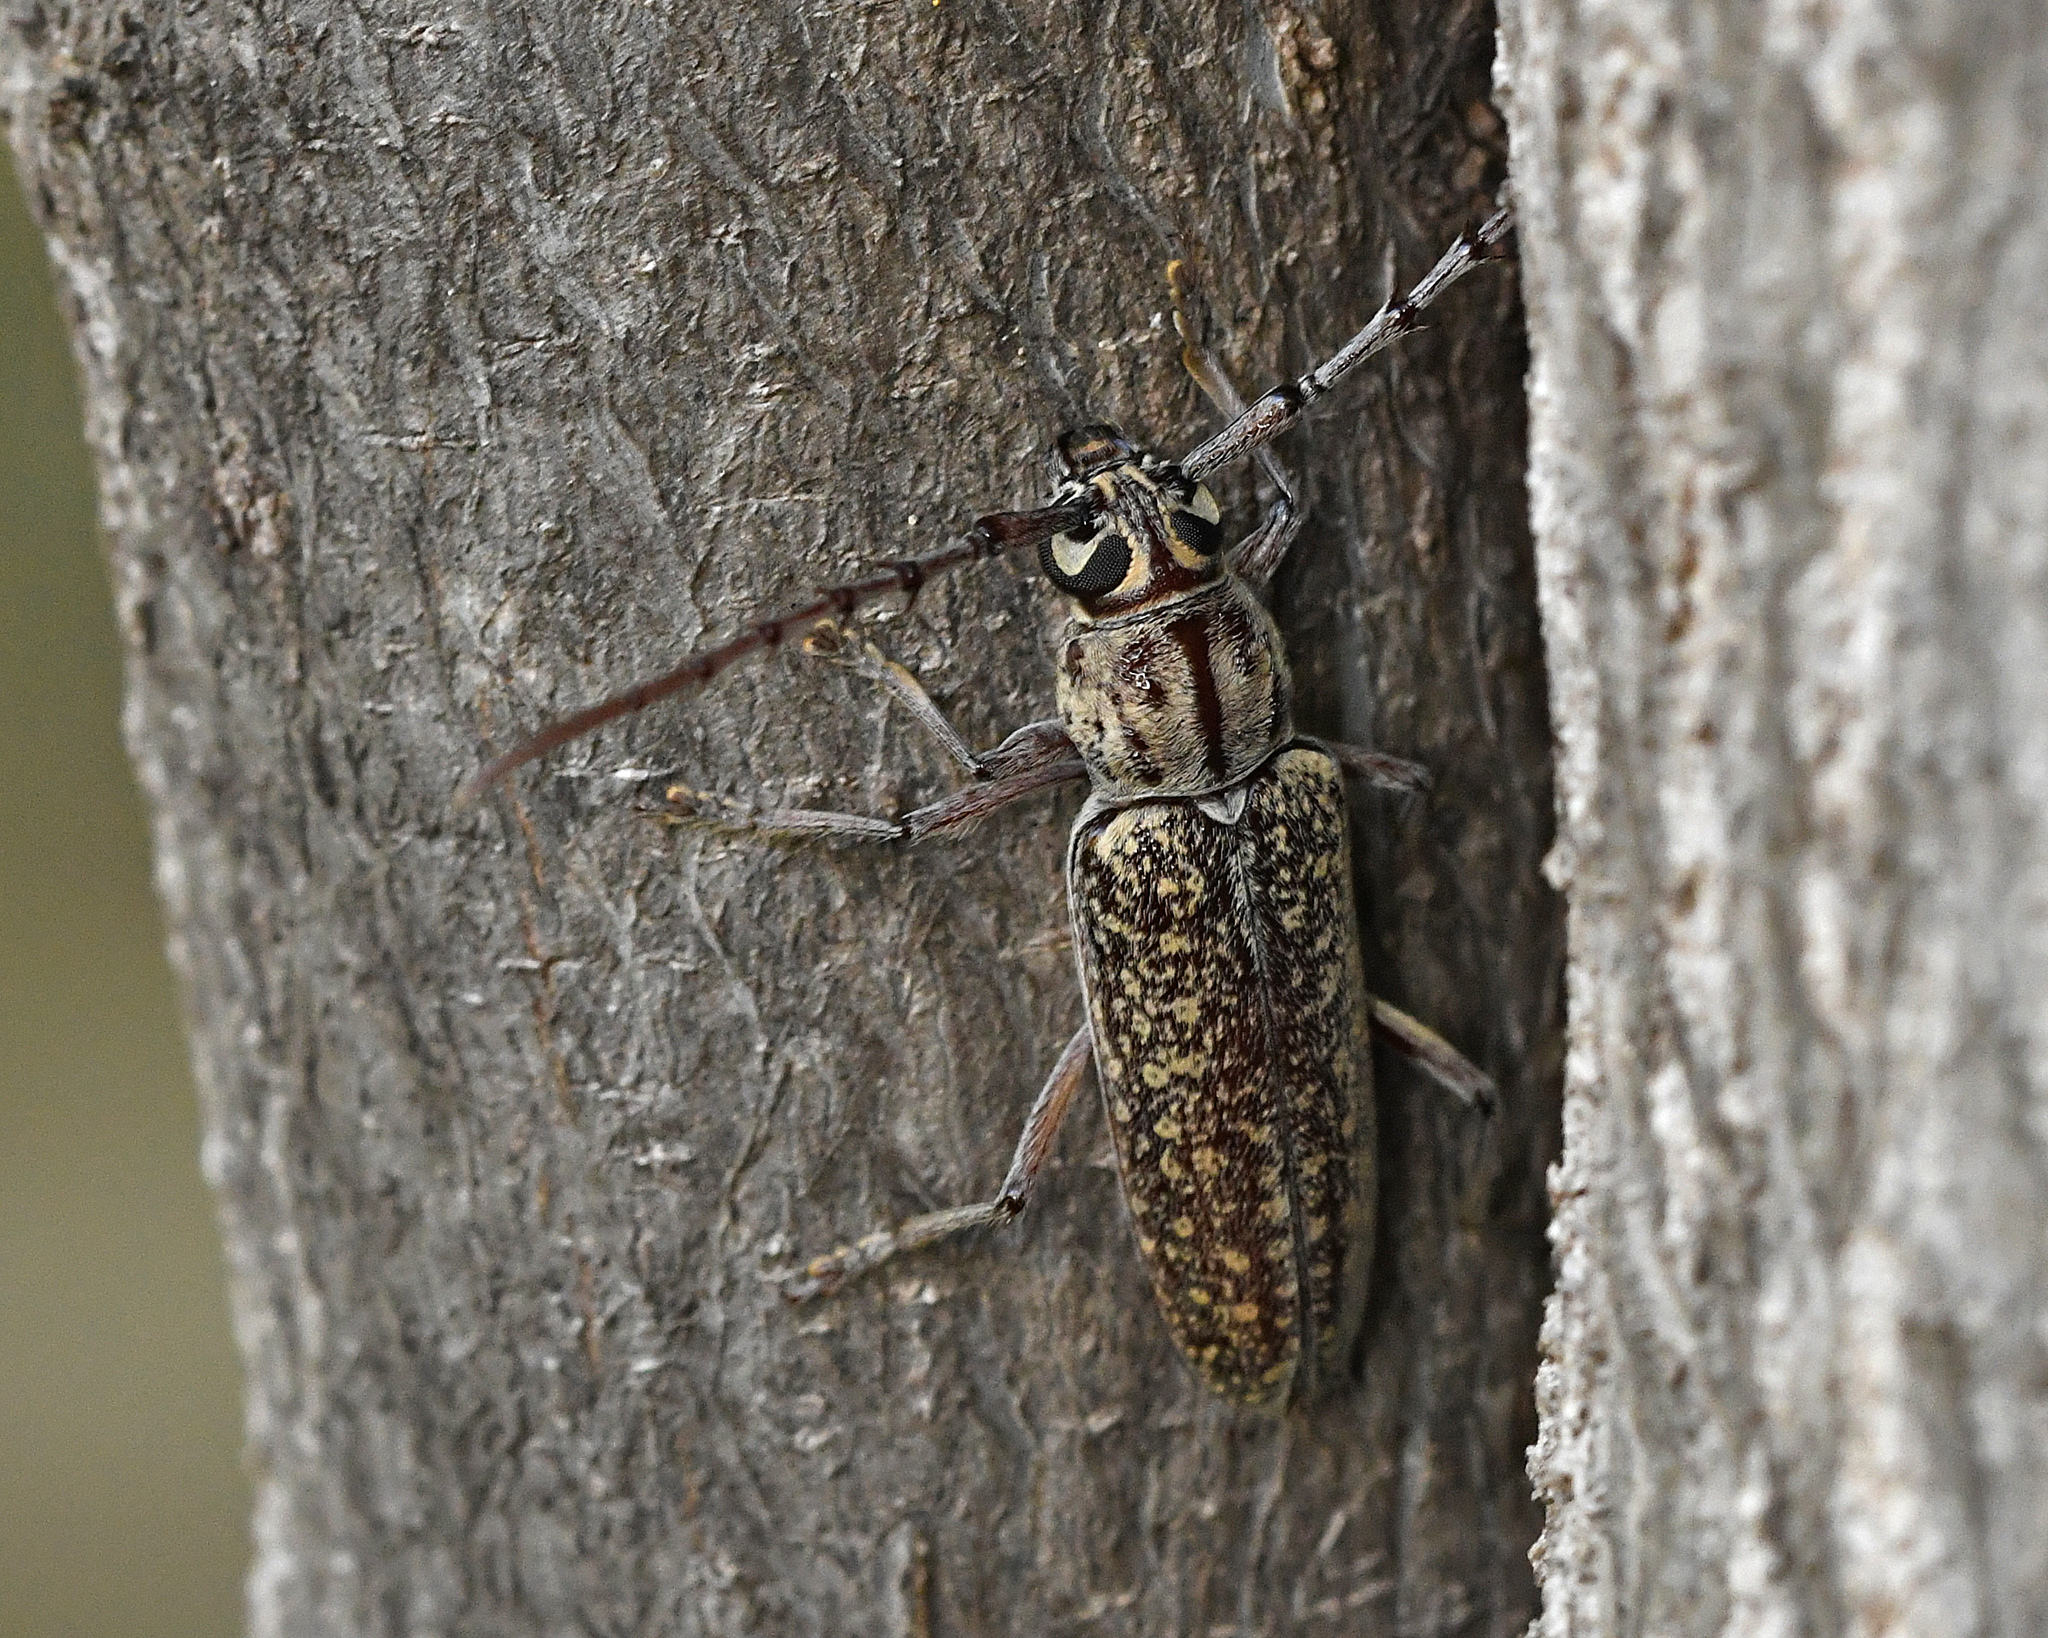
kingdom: Animalia
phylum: Arthropoda
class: Insecta
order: Coleoptera
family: Cerambycidae
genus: Elaphidion
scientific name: Elaphidion conspersum
